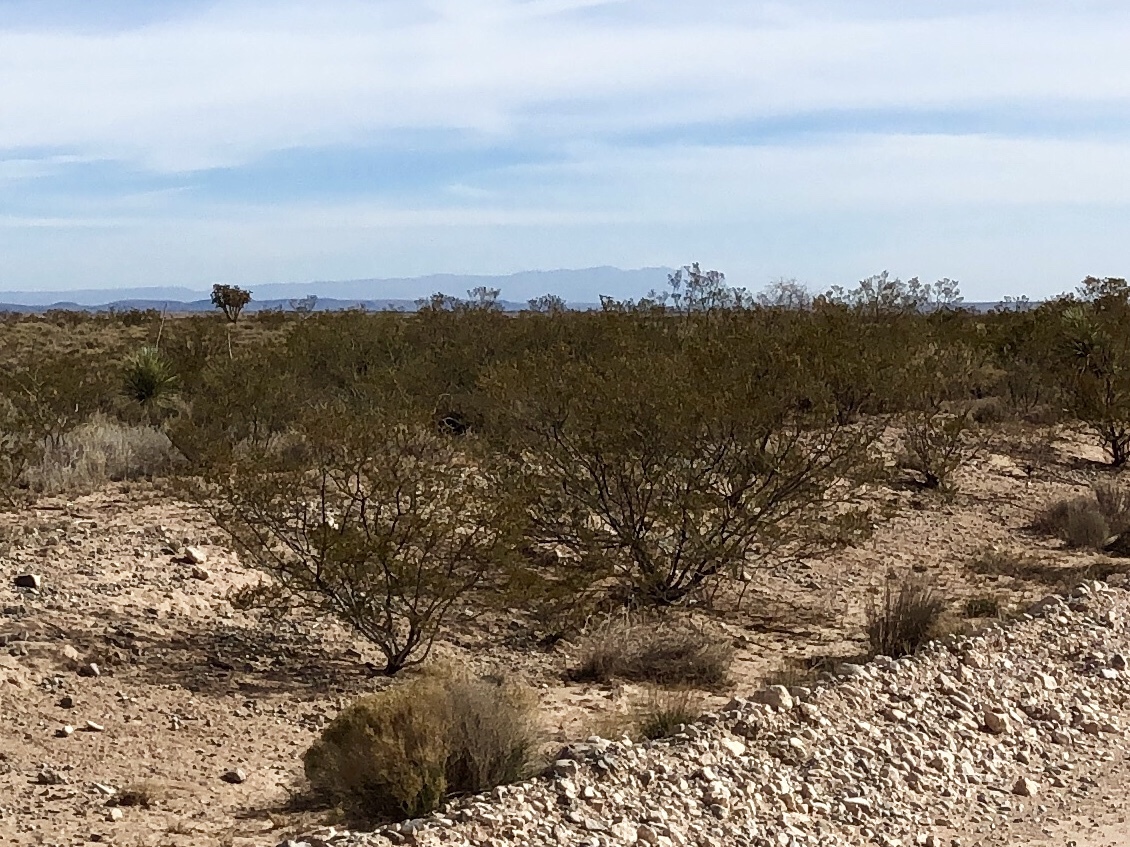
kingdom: Plantae
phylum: Tracheophyta
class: Magnoliopsida
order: Zygophyllales
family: Zygophyllaceae
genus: Larrea
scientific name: Larrea tridentata
